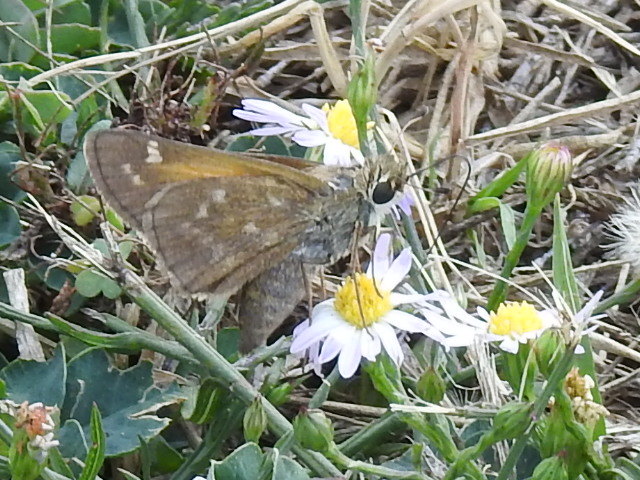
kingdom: Animalia
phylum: Arthropoda
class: Insecta
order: Lepidoptera
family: Hesperiidae
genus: Atalopedes
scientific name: Atalopedes
